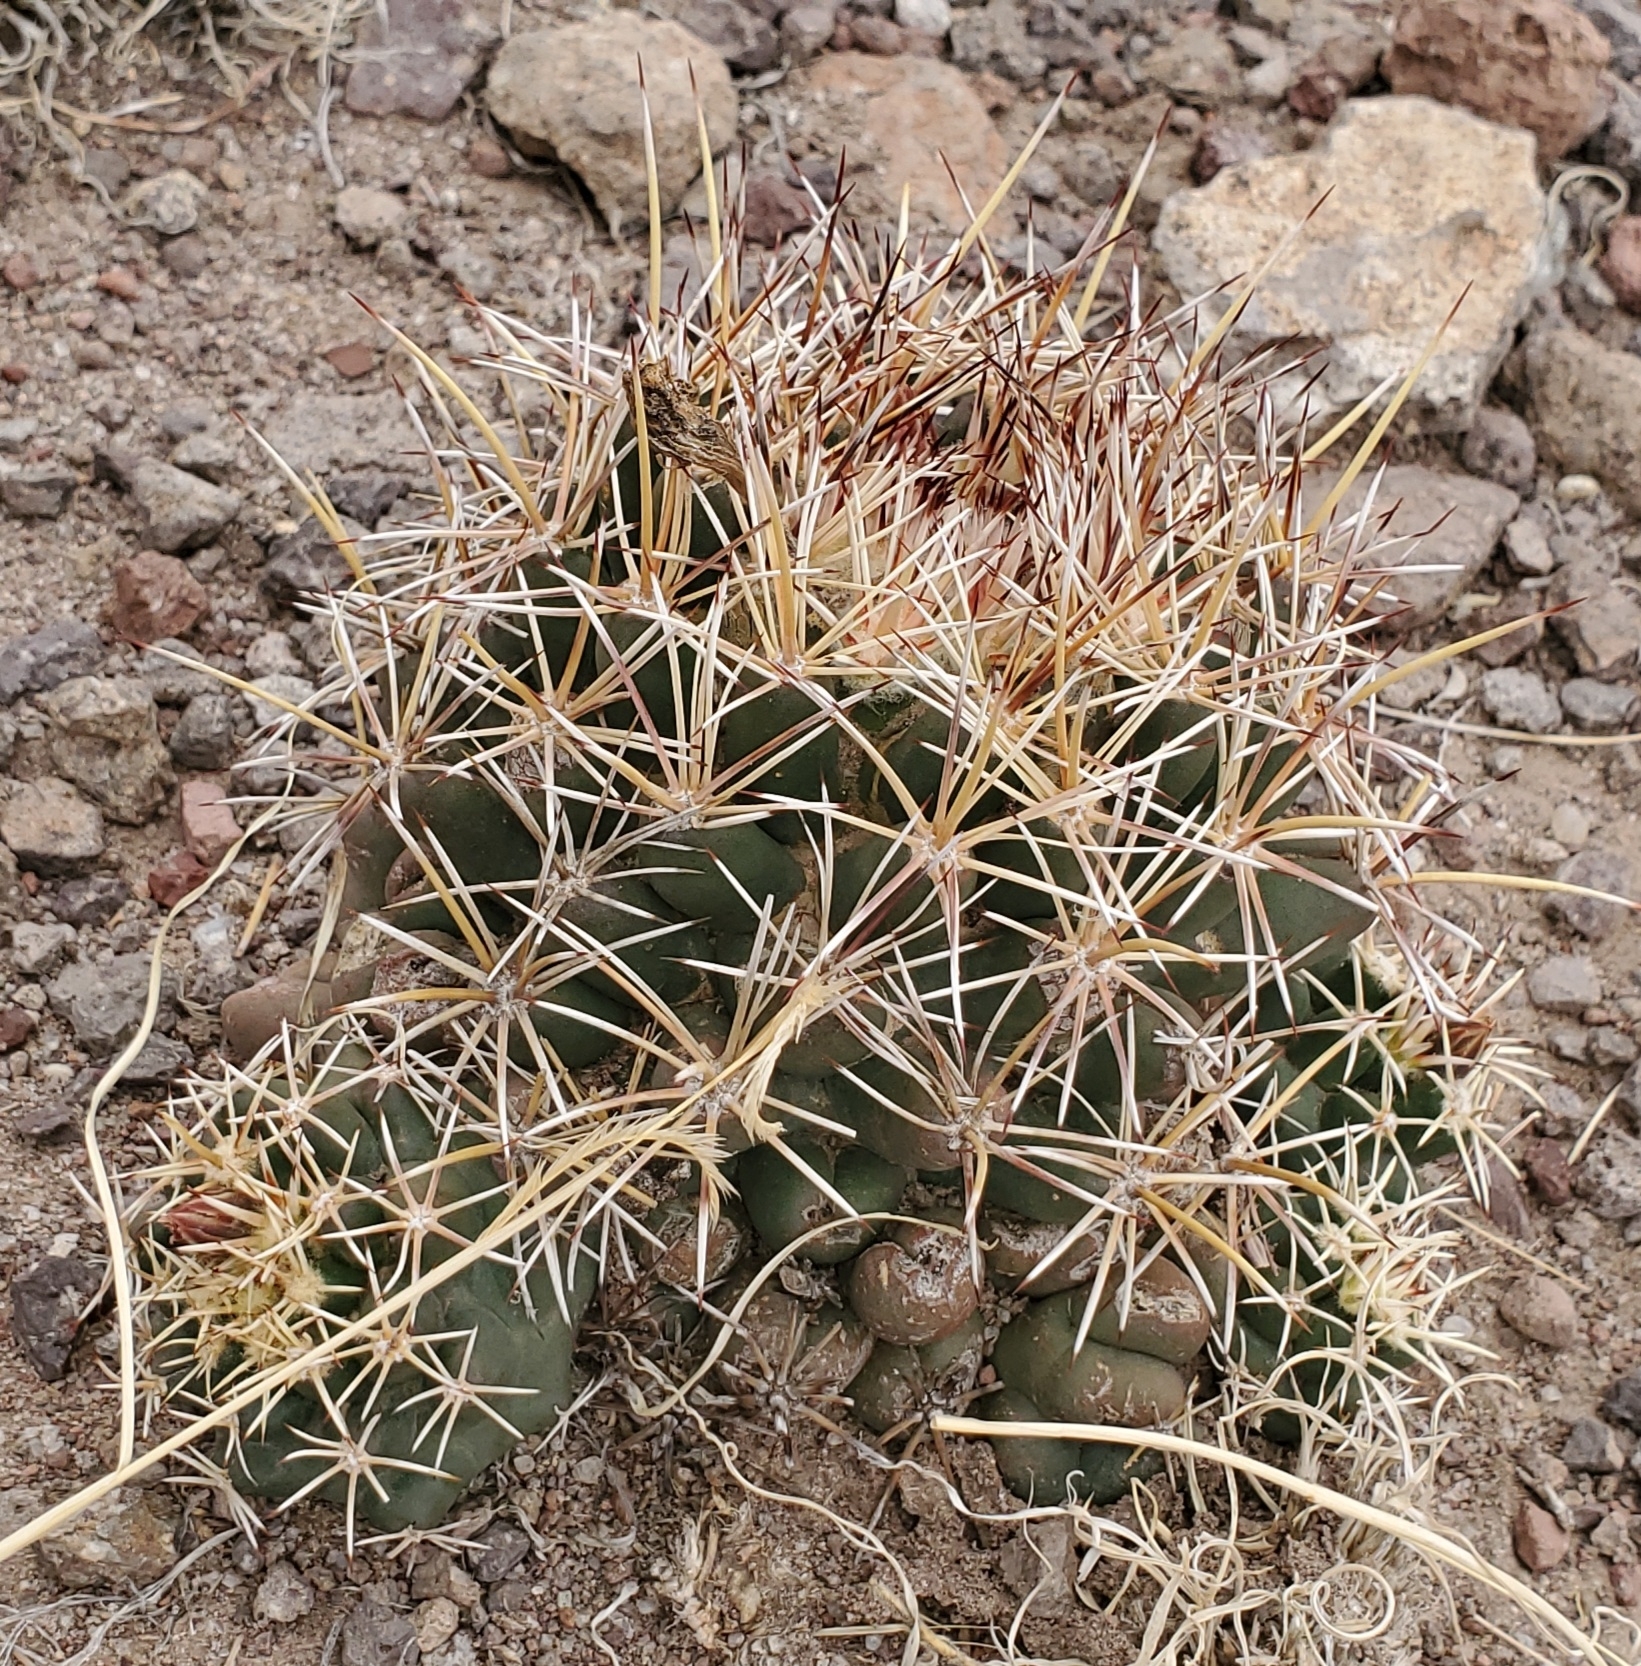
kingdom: Plantae
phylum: Tracheophyta
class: Magnoliopsida
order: Caryophyllales
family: Cactaceae
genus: Coryphantha
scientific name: Coryphantha robustispina
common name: Pima pineapple cactus
